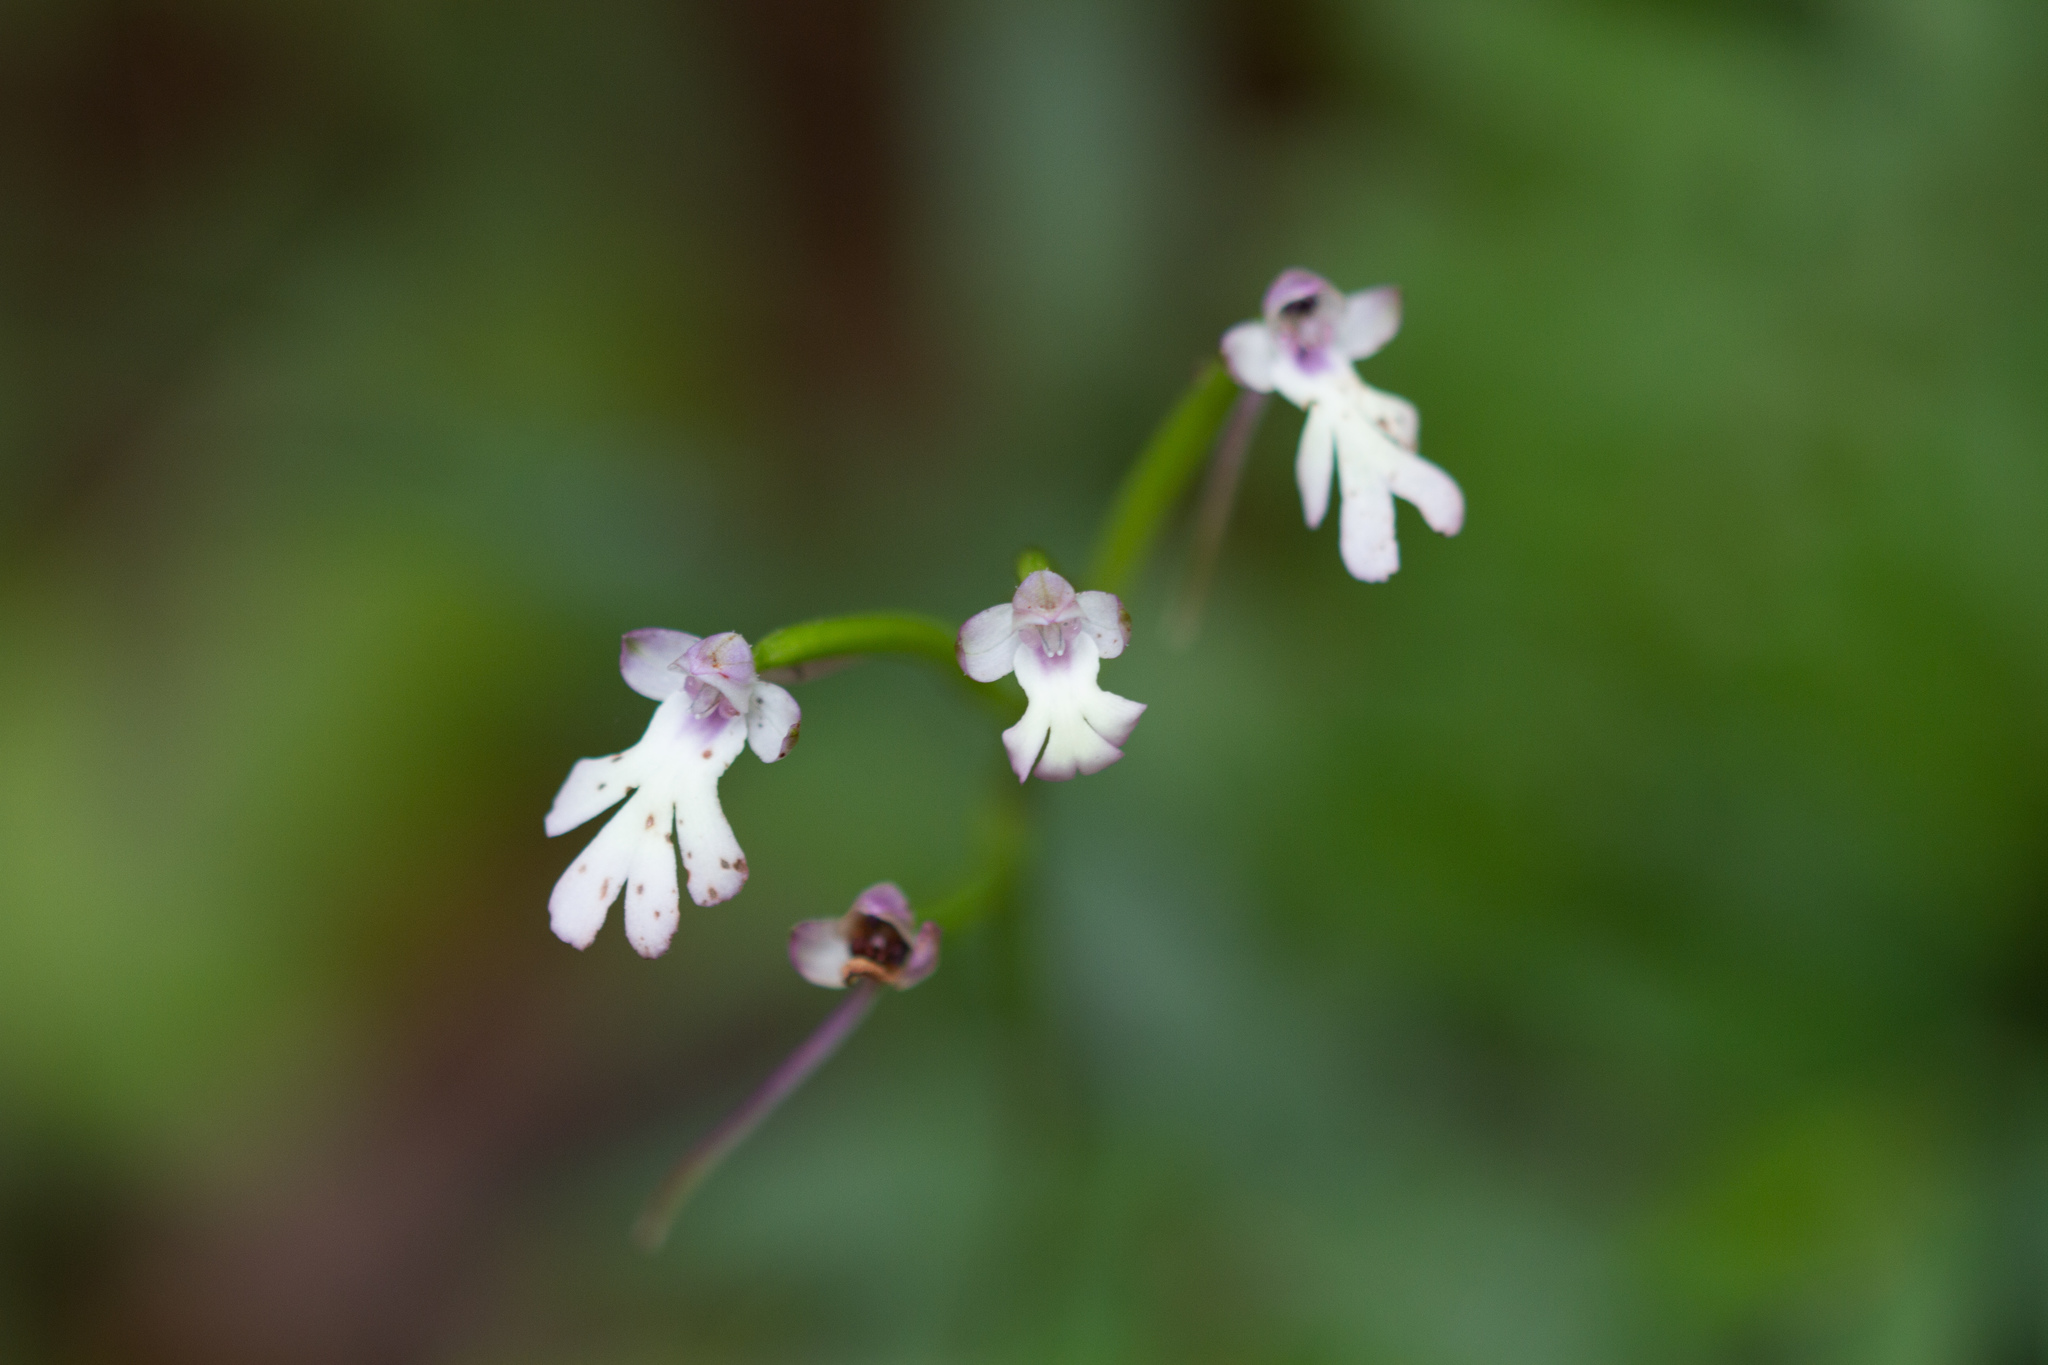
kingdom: Plantae
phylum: Tracheophyta
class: Liliopsida
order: Asparagales
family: Orchidaceae
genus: Cynorkis
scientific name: Cynorkis fastigiata
